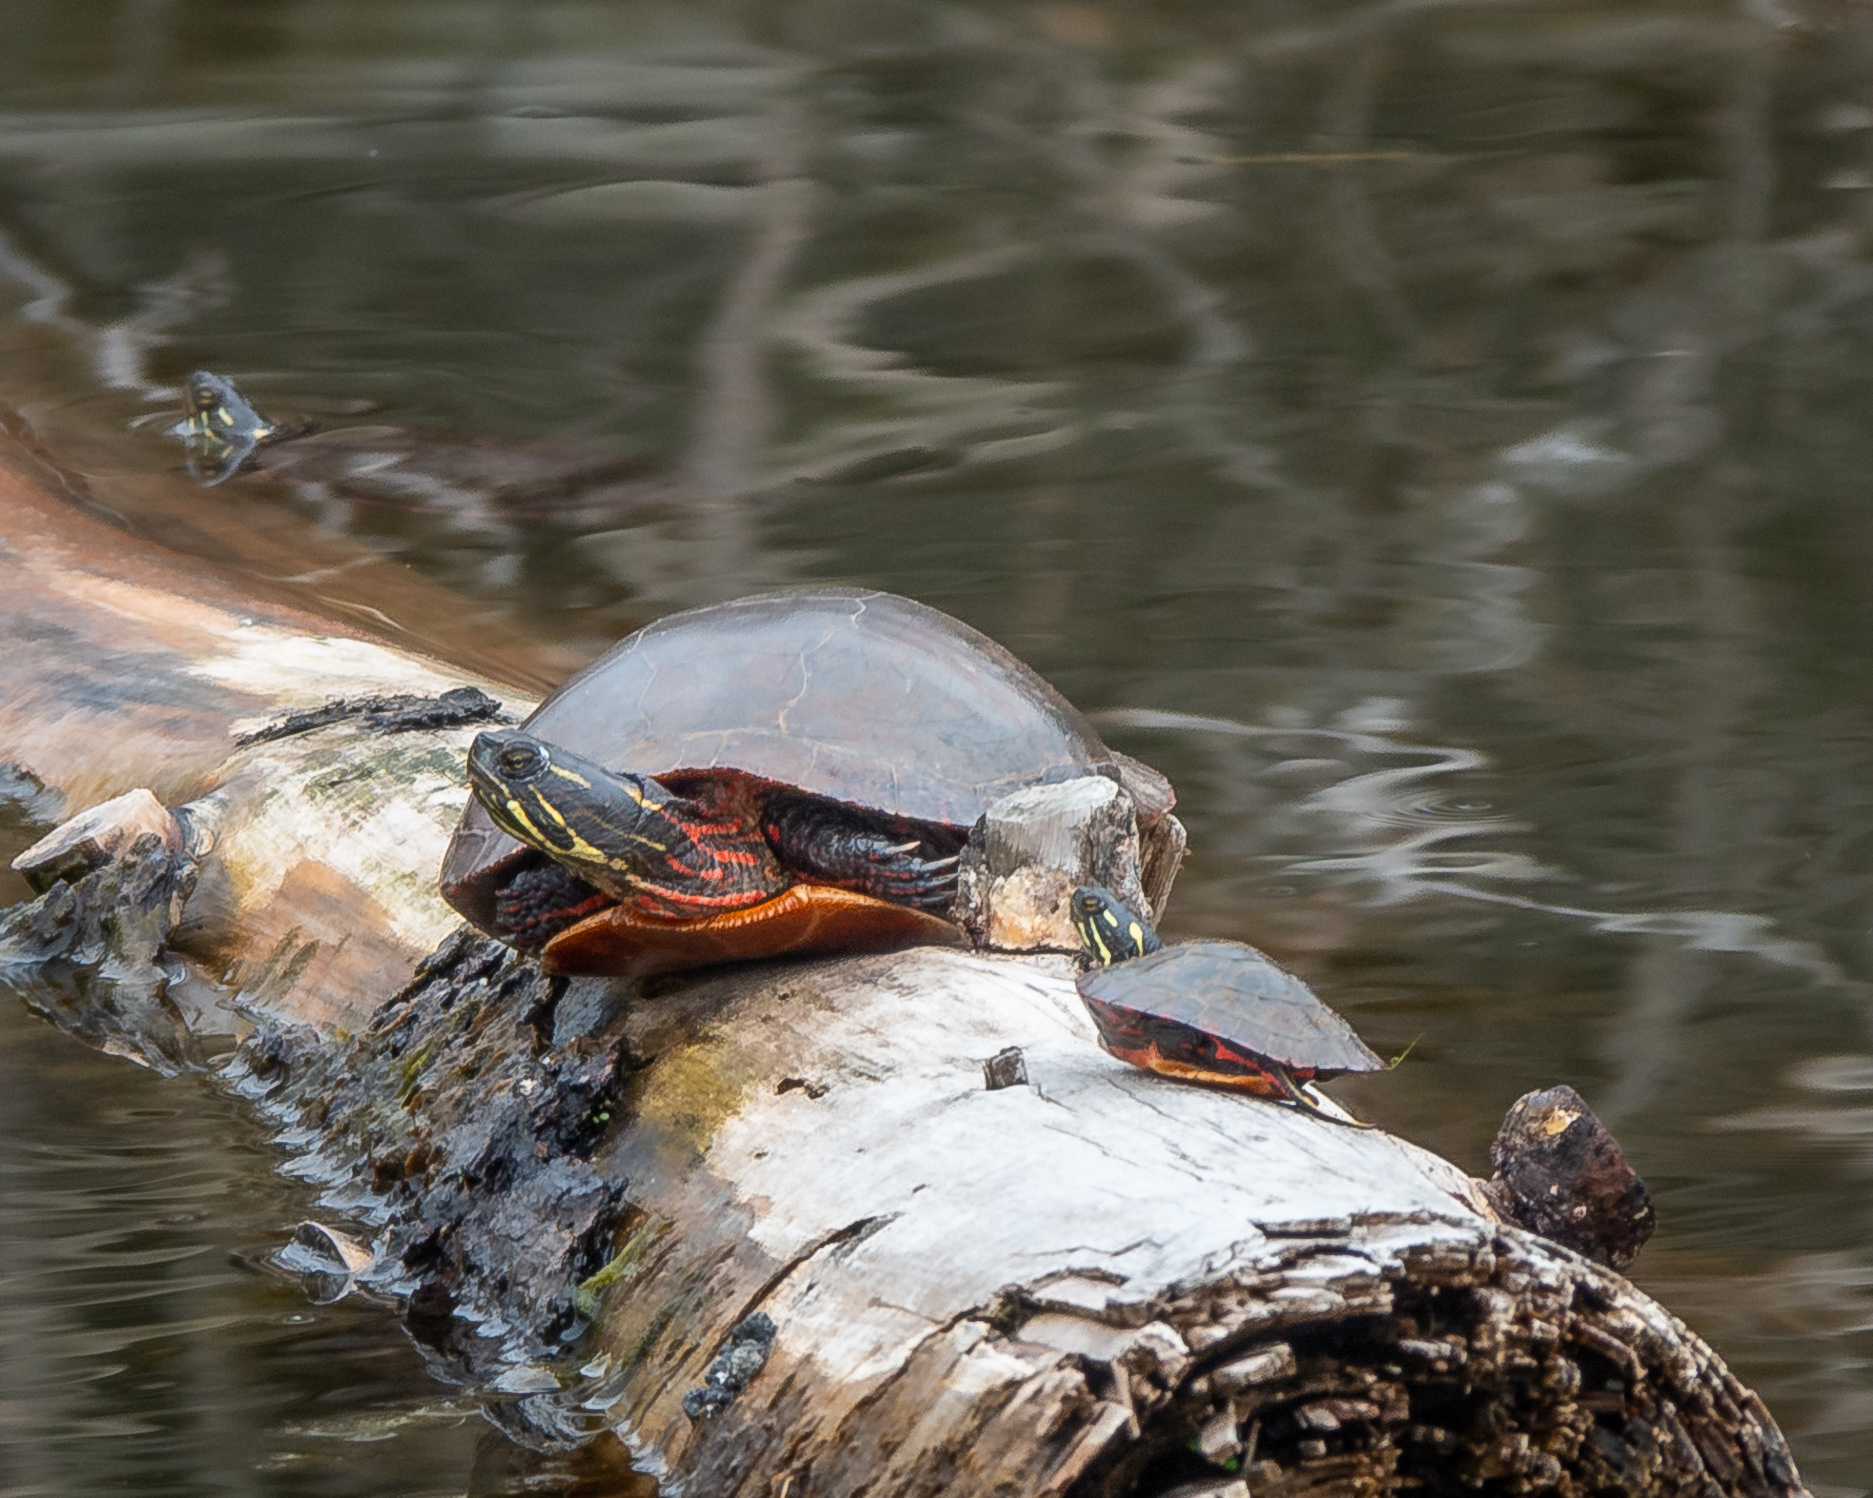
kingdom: Animalia
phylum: Chordata
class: Testudines
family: Emydidae
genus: Chrysemys
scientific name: Chrysemys picta
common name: Painted turtle
